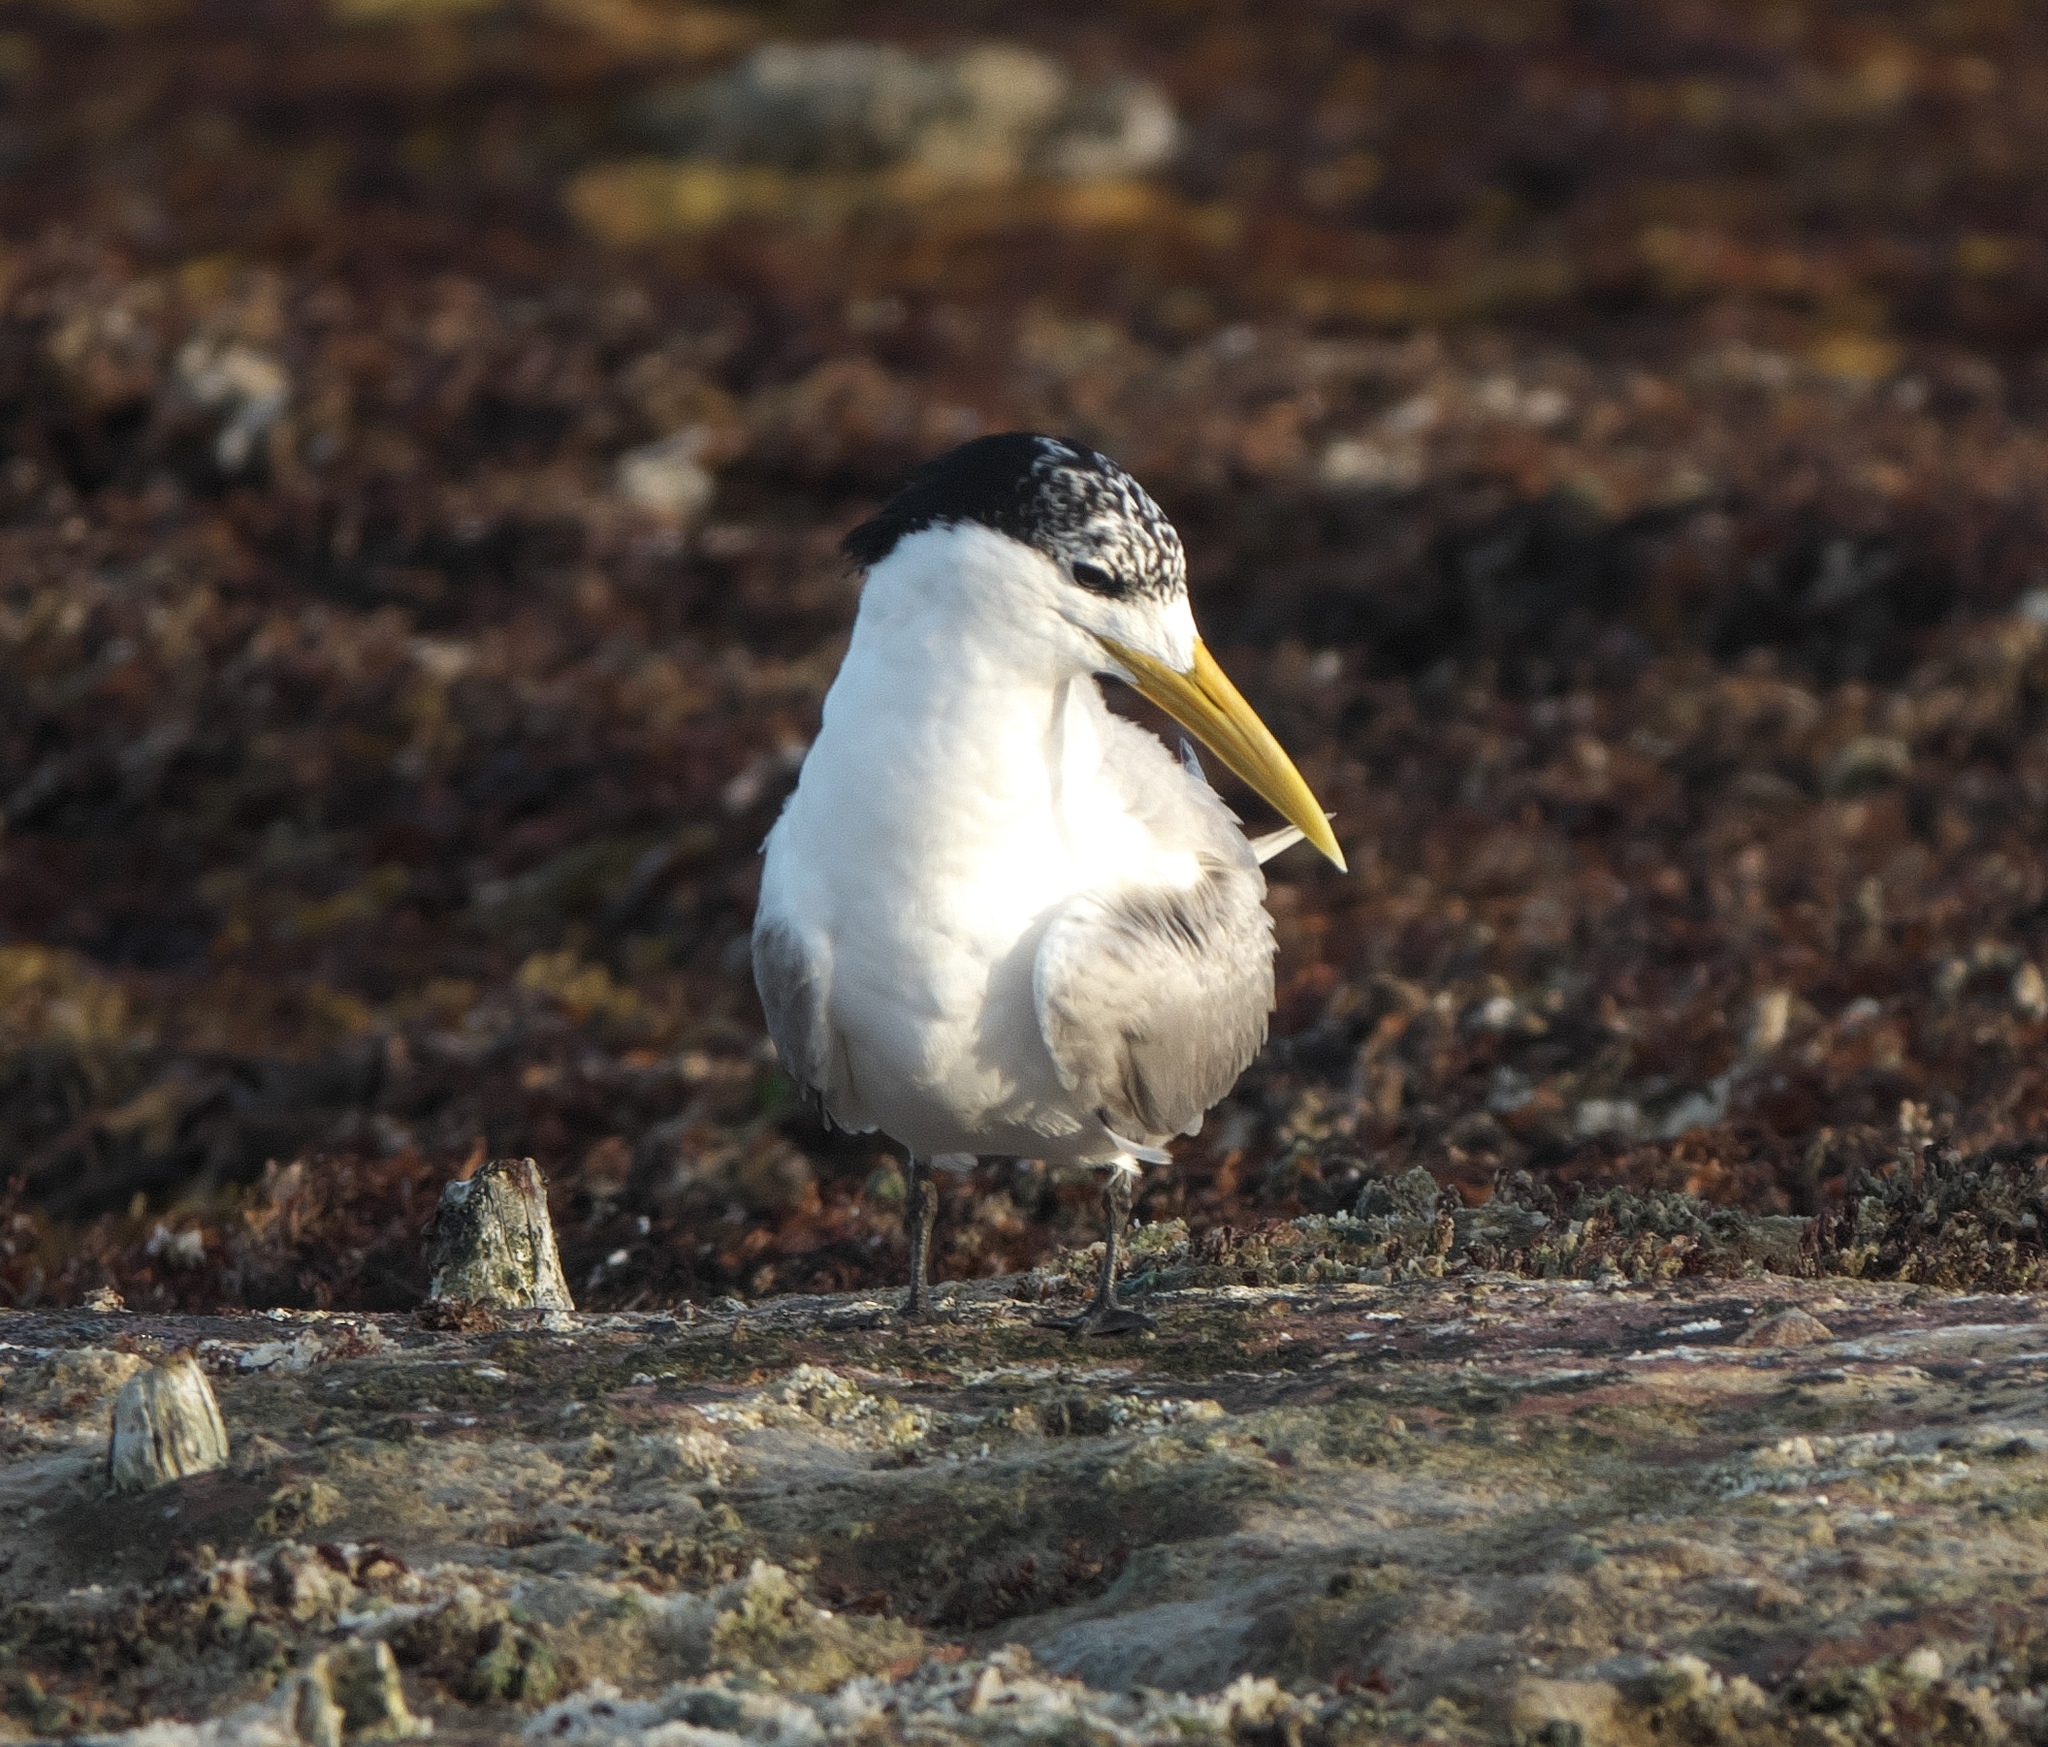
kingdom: Animalia
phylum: Chordata
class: Aves
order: Charadriiformes
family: Laridae
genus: Thalasseus
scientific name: Thalasseus bergii
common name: Greater crested tern
